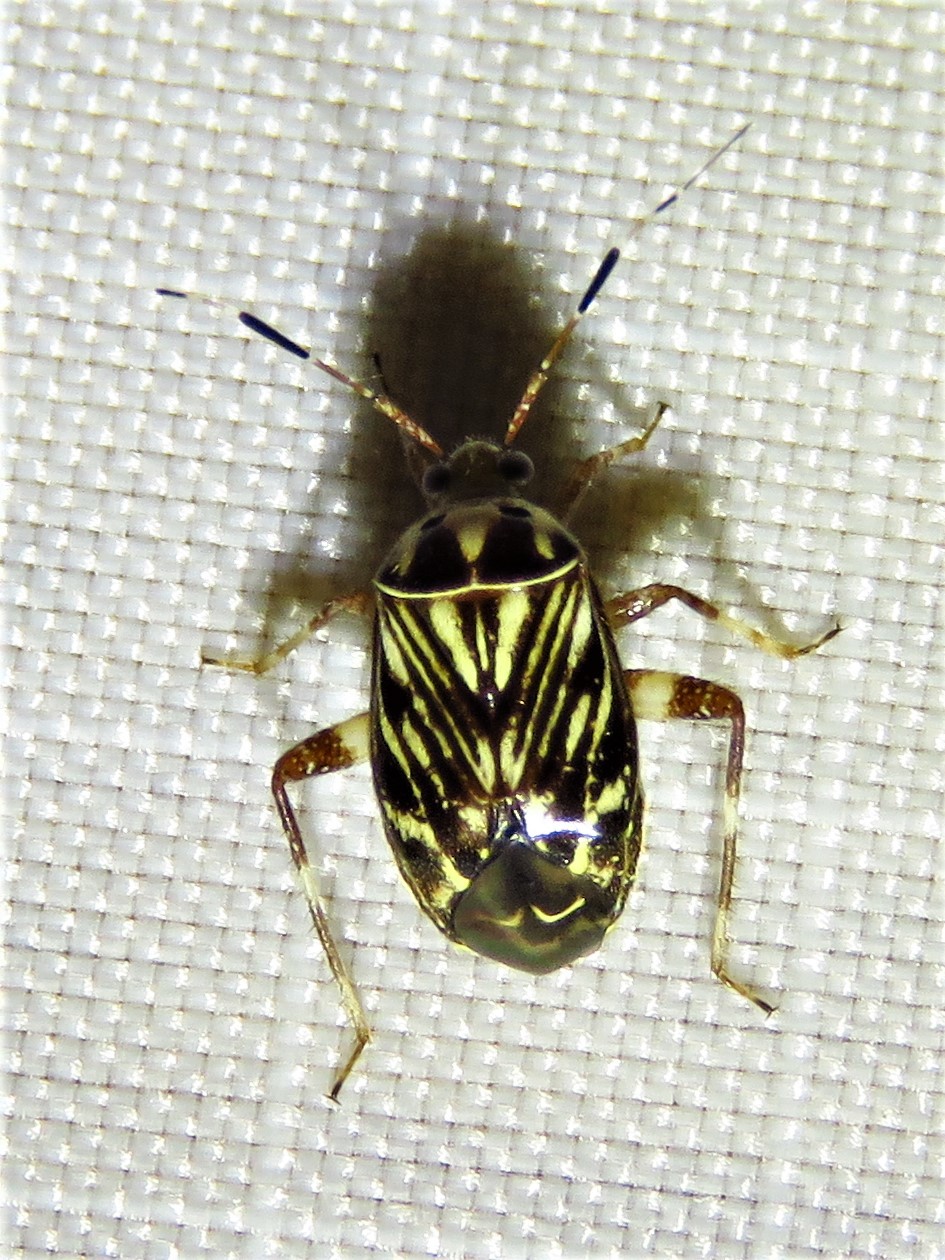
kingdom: Animalia
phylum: Arthropoda
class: Insecta
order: Hemiptera
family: Miridae
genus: Taedia
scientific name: Taedia virgulata
